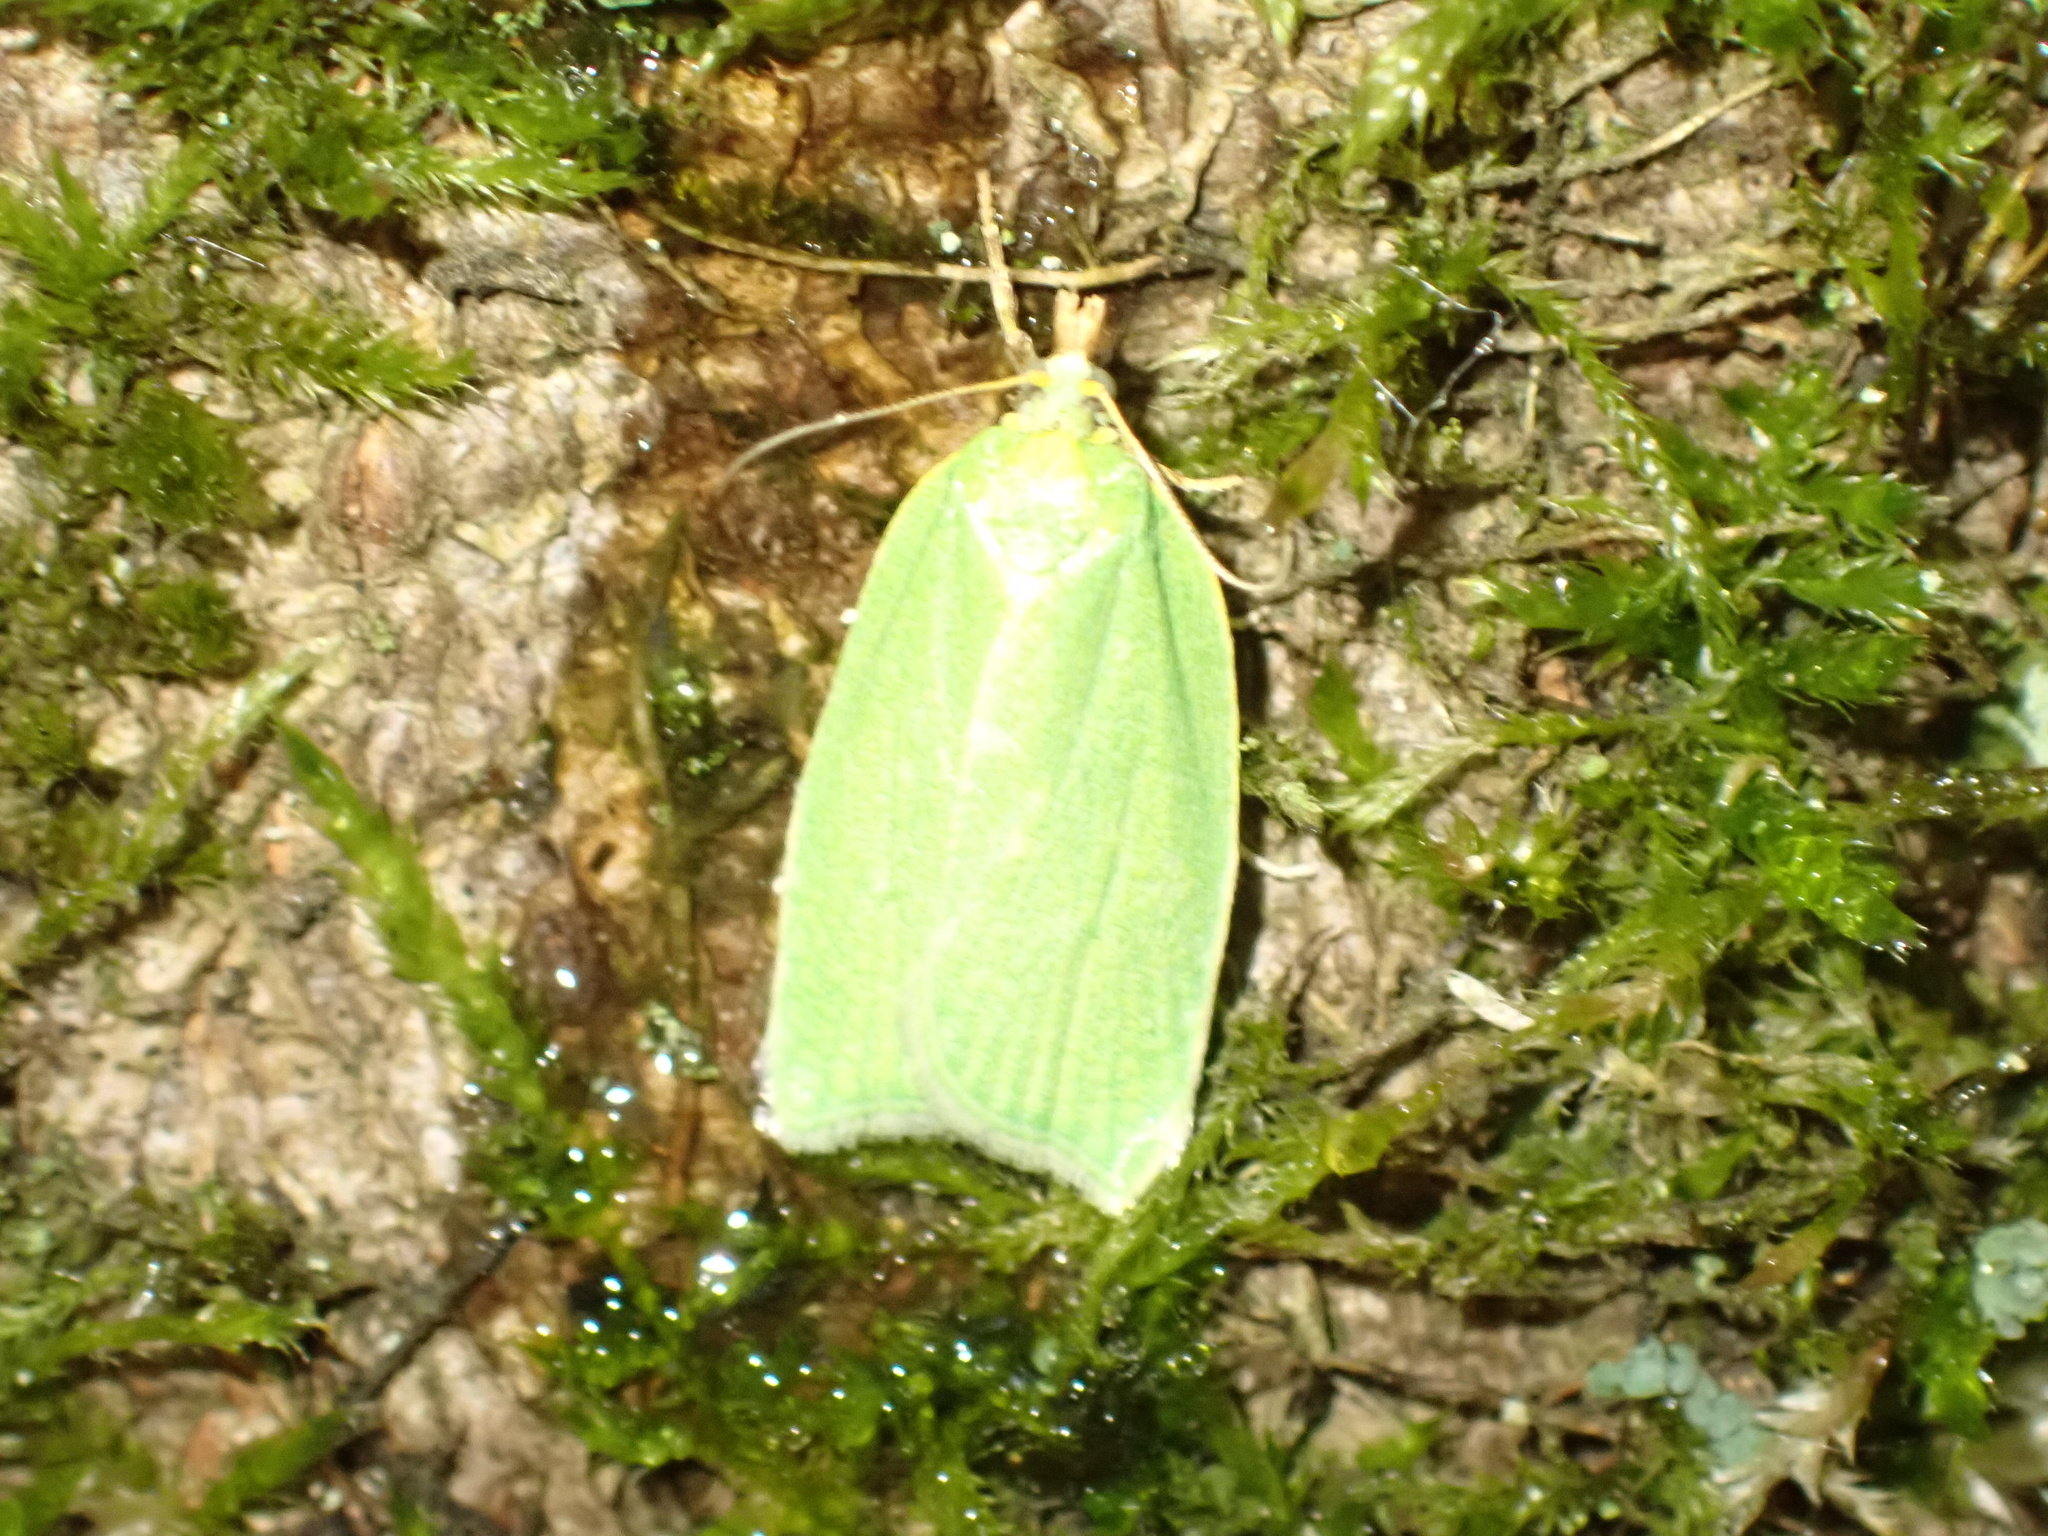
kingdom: Animalia
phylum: Arthropoda
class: Insecta
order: Lepidoptera
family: Tortricidae
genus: Tortrix
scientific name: Tortrix viridana
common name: Green oak tortrix
